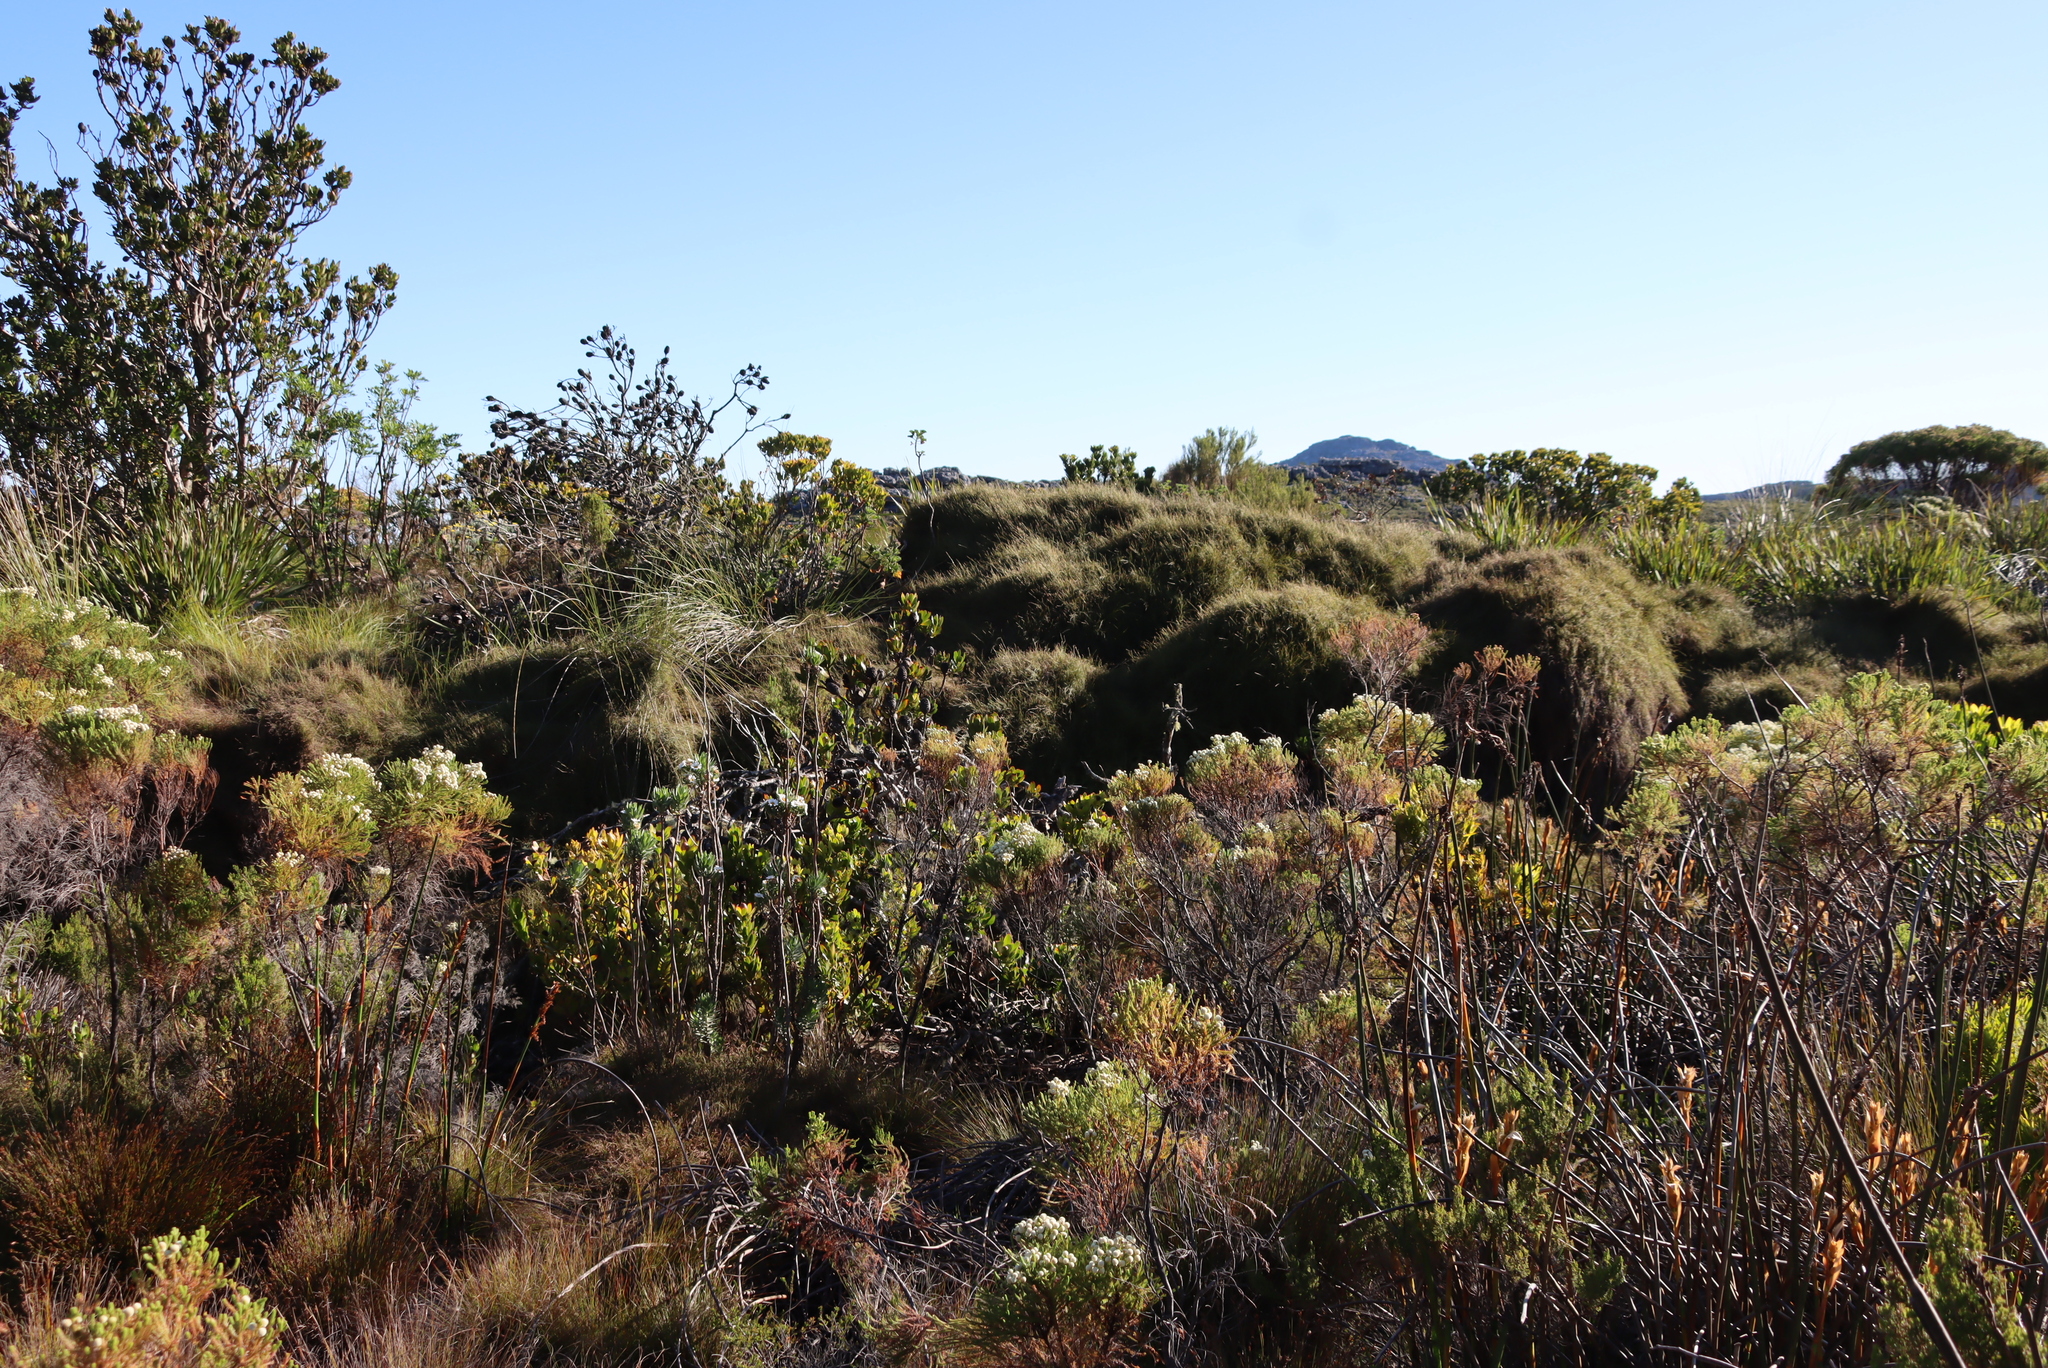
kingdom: Plantae
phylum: Tracheophyta
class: Magnoliopsida
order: Proteales
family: Proteaceae
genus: Leucadendron
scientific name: Leucadendron strobilinum
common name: Mountain rose
